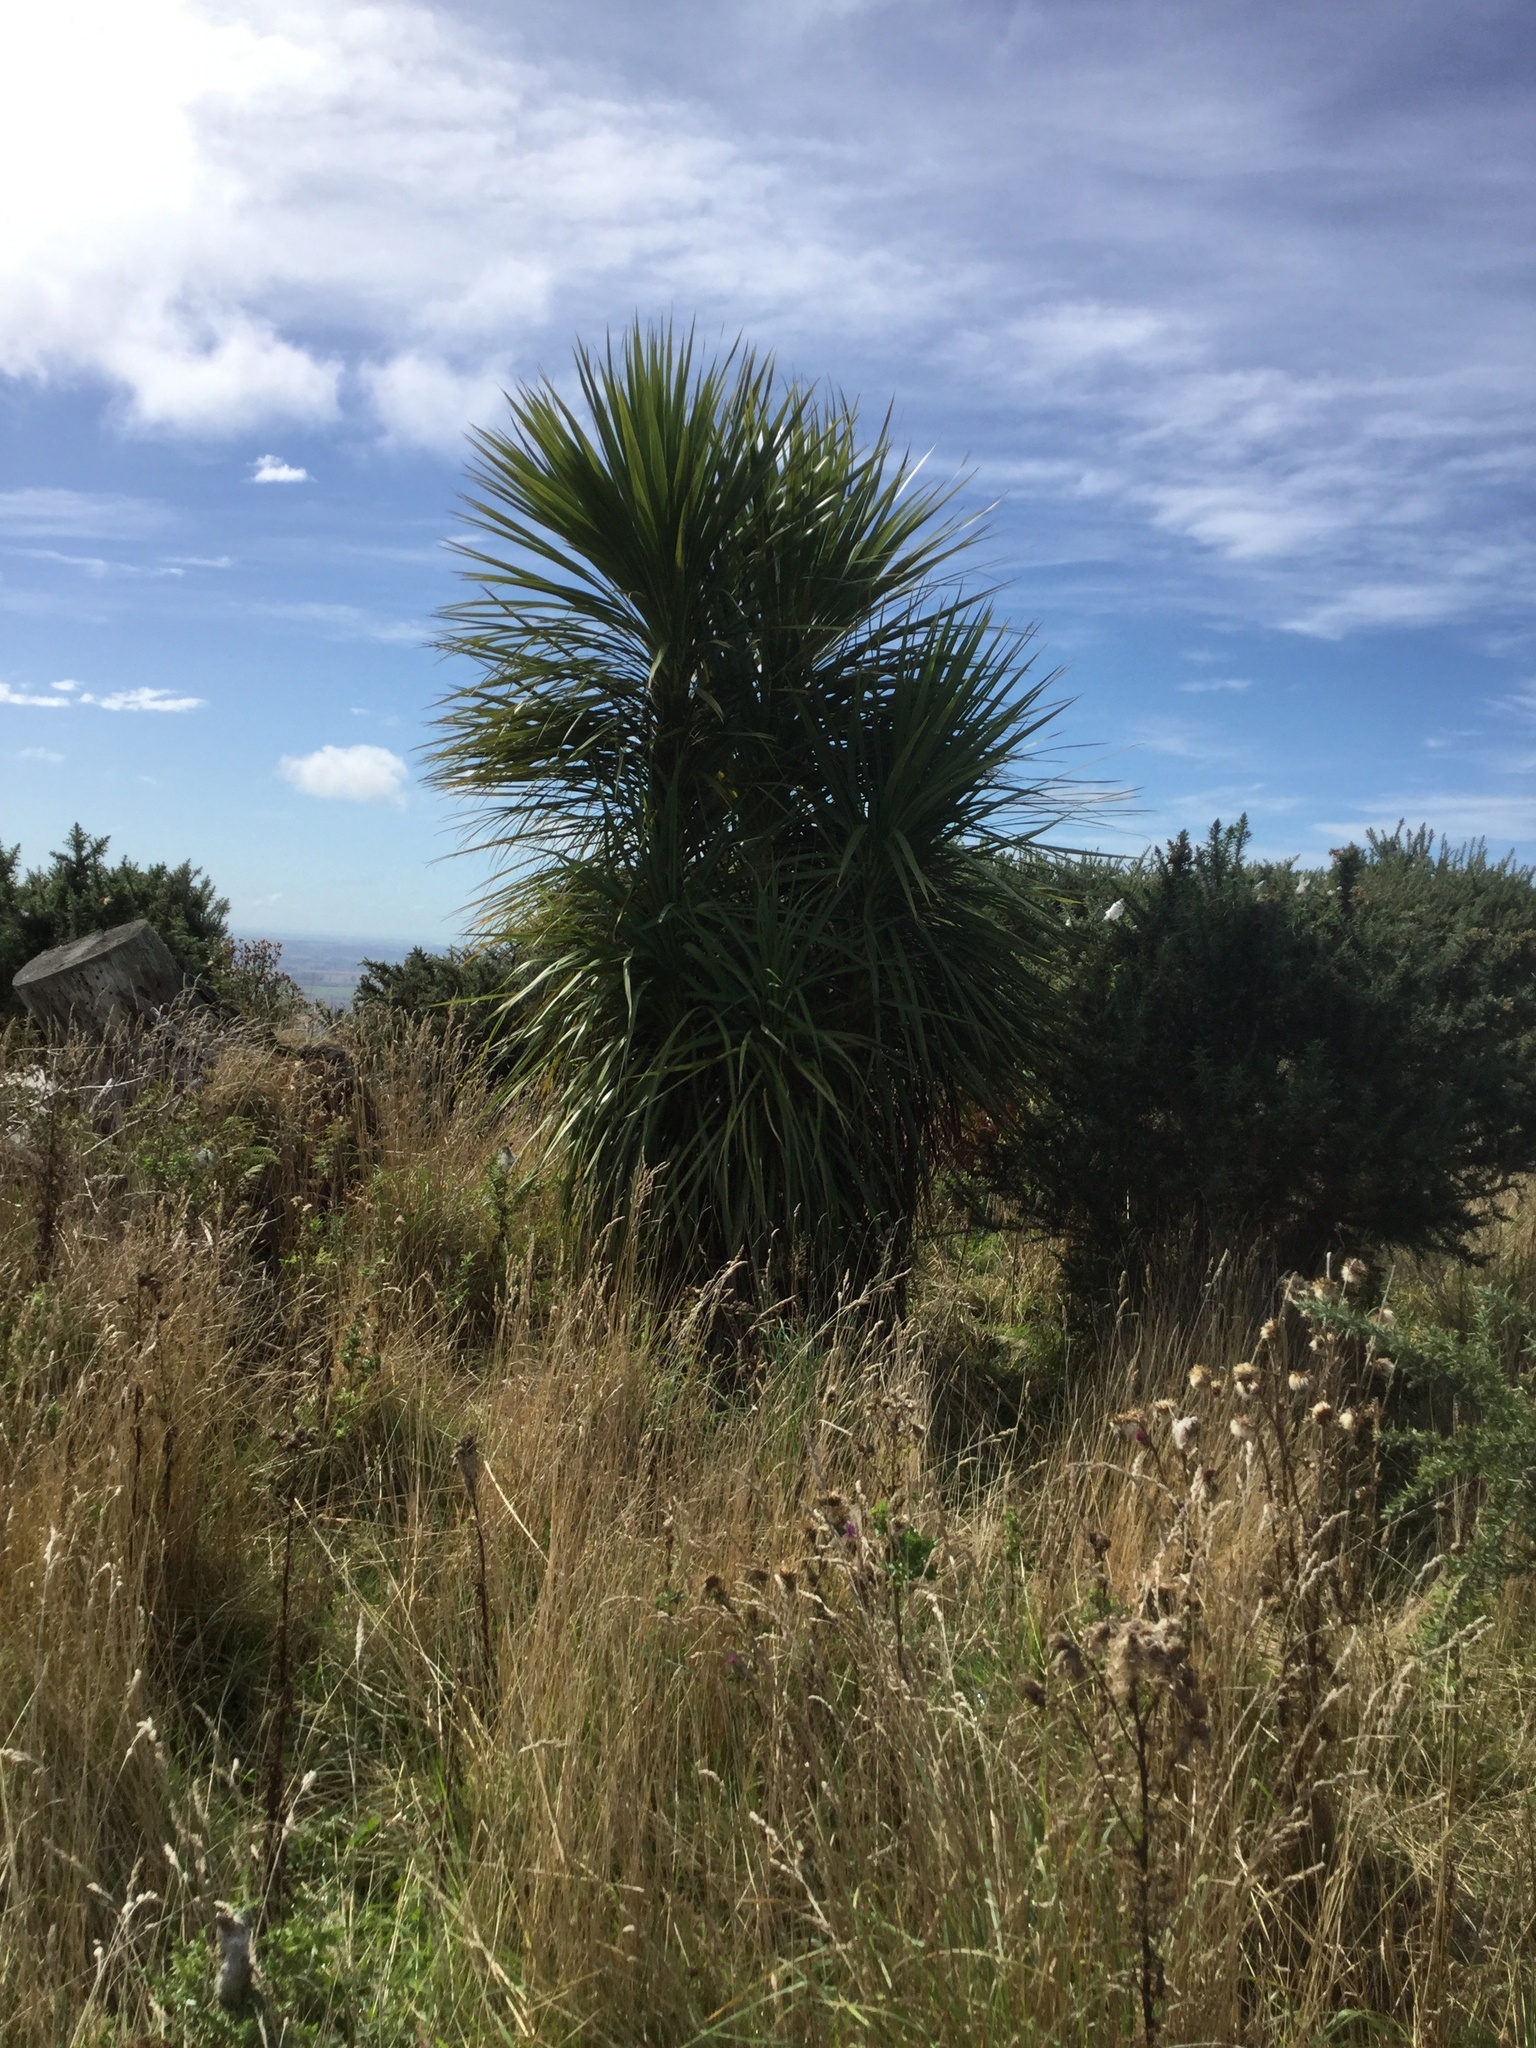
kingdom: Plantae
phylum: Tracheophyta
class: Liliopsida
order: Asparagales
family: Asparagaceae
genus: Cordyline
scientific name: Cordyline australis
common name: Cabbage-palm
